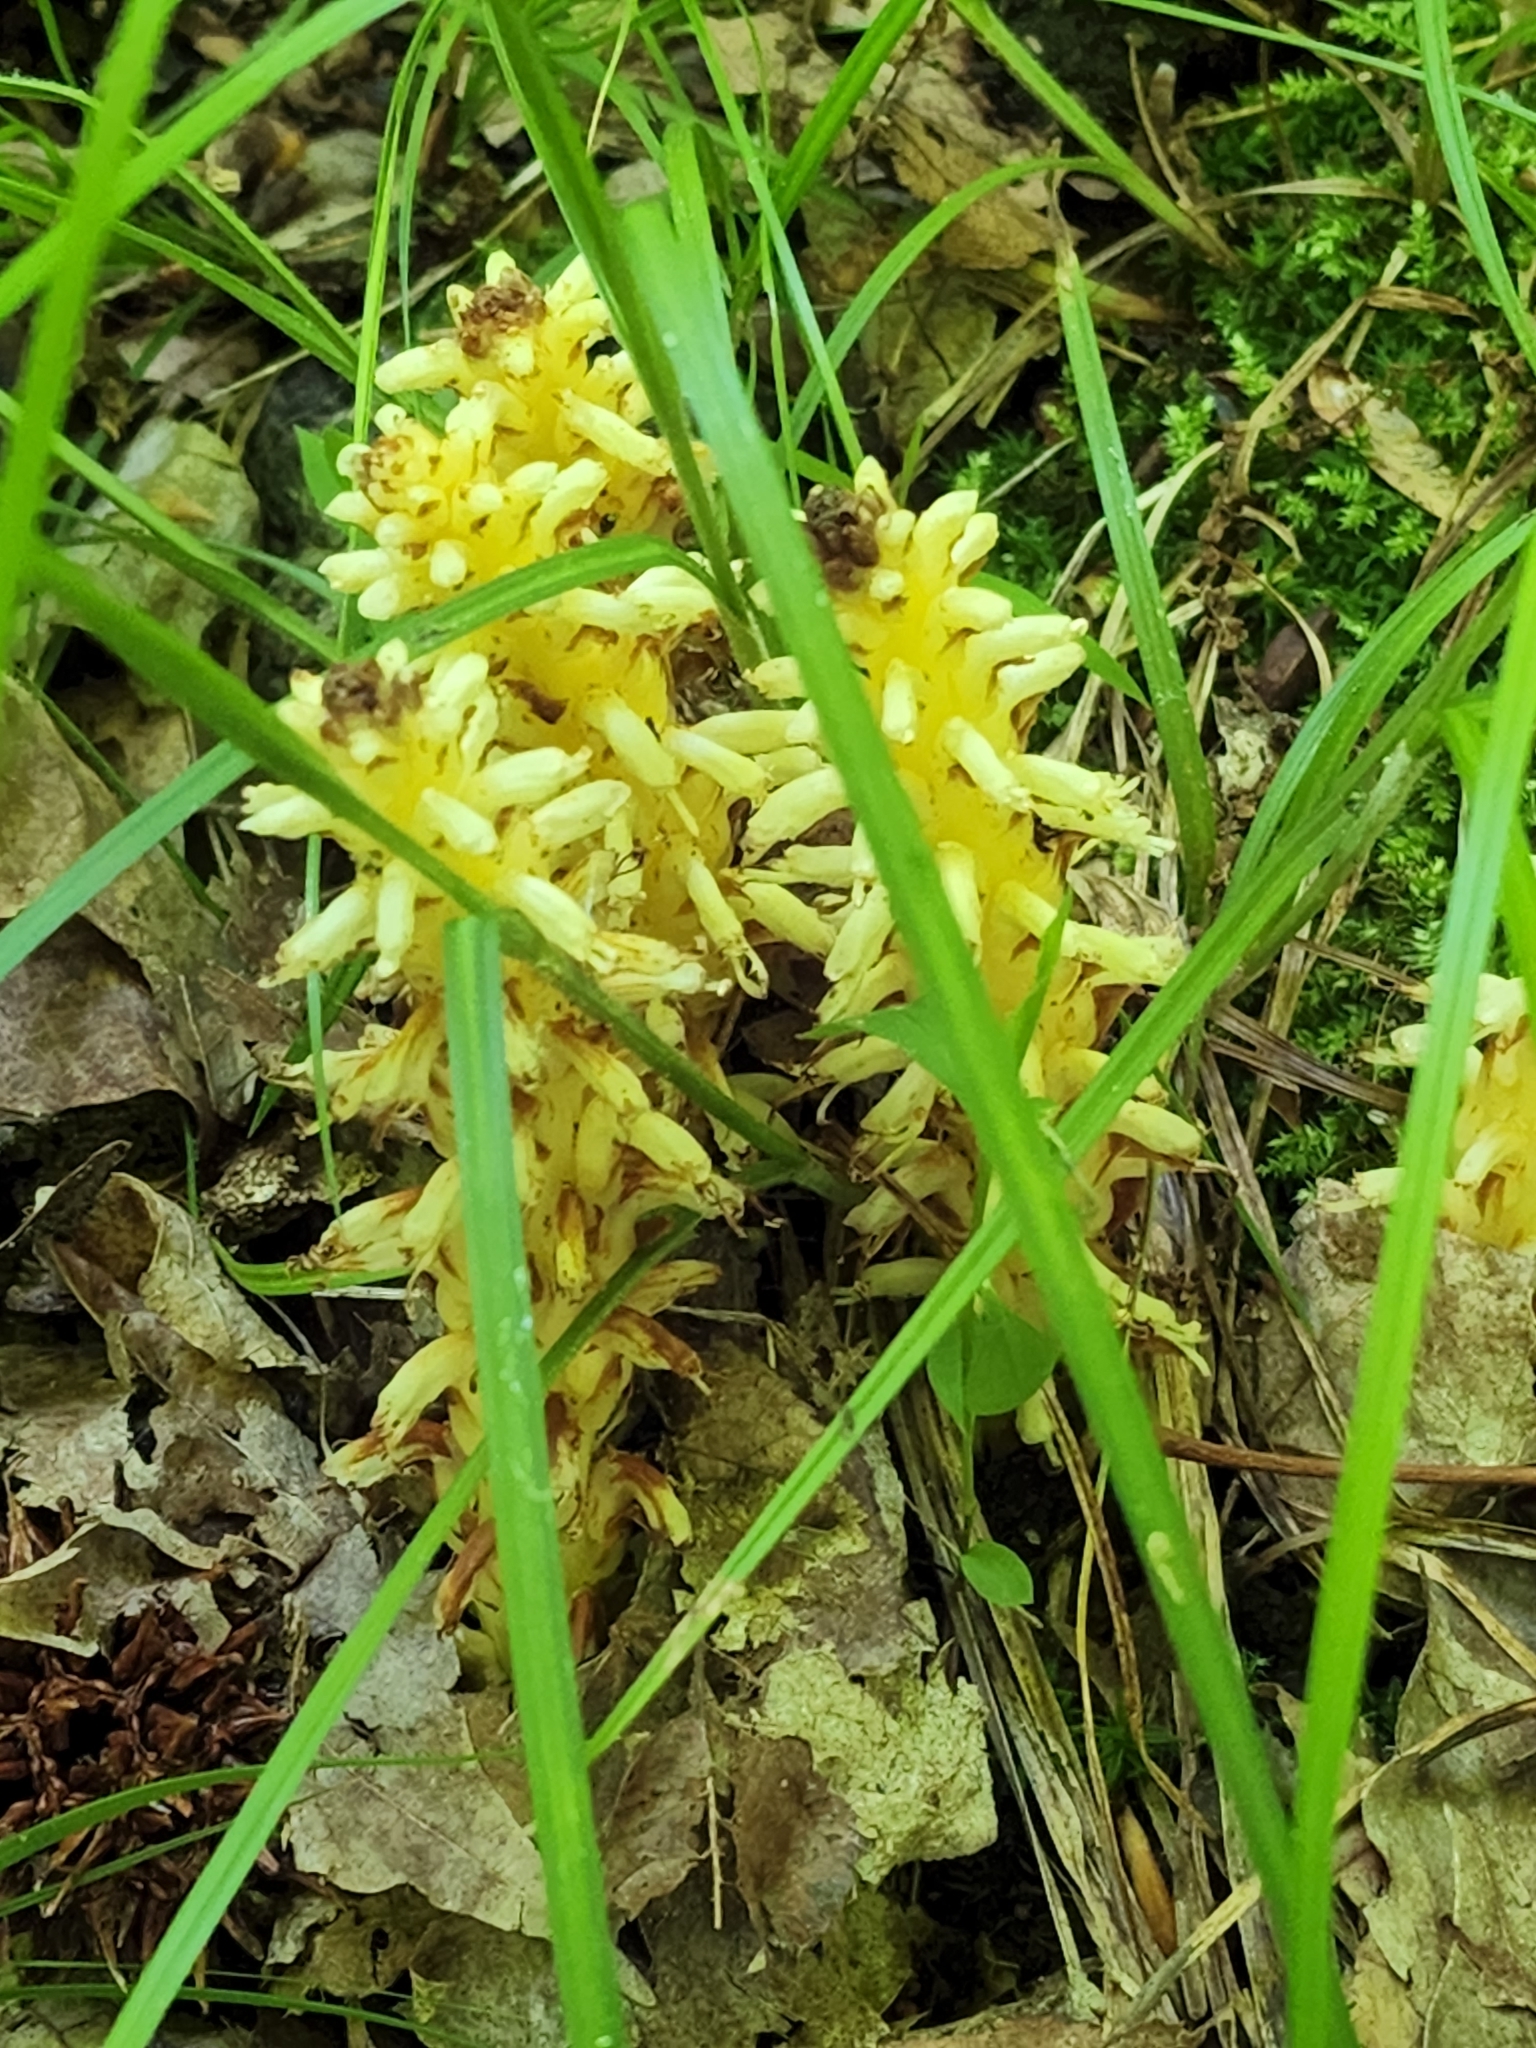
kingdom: Plantae
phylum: Tracheophyta
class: Magnoliopsida
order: Lamiales
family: Orobanchaceae
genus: Conopholis
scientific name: Conopholis americana
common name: American cancer-root
